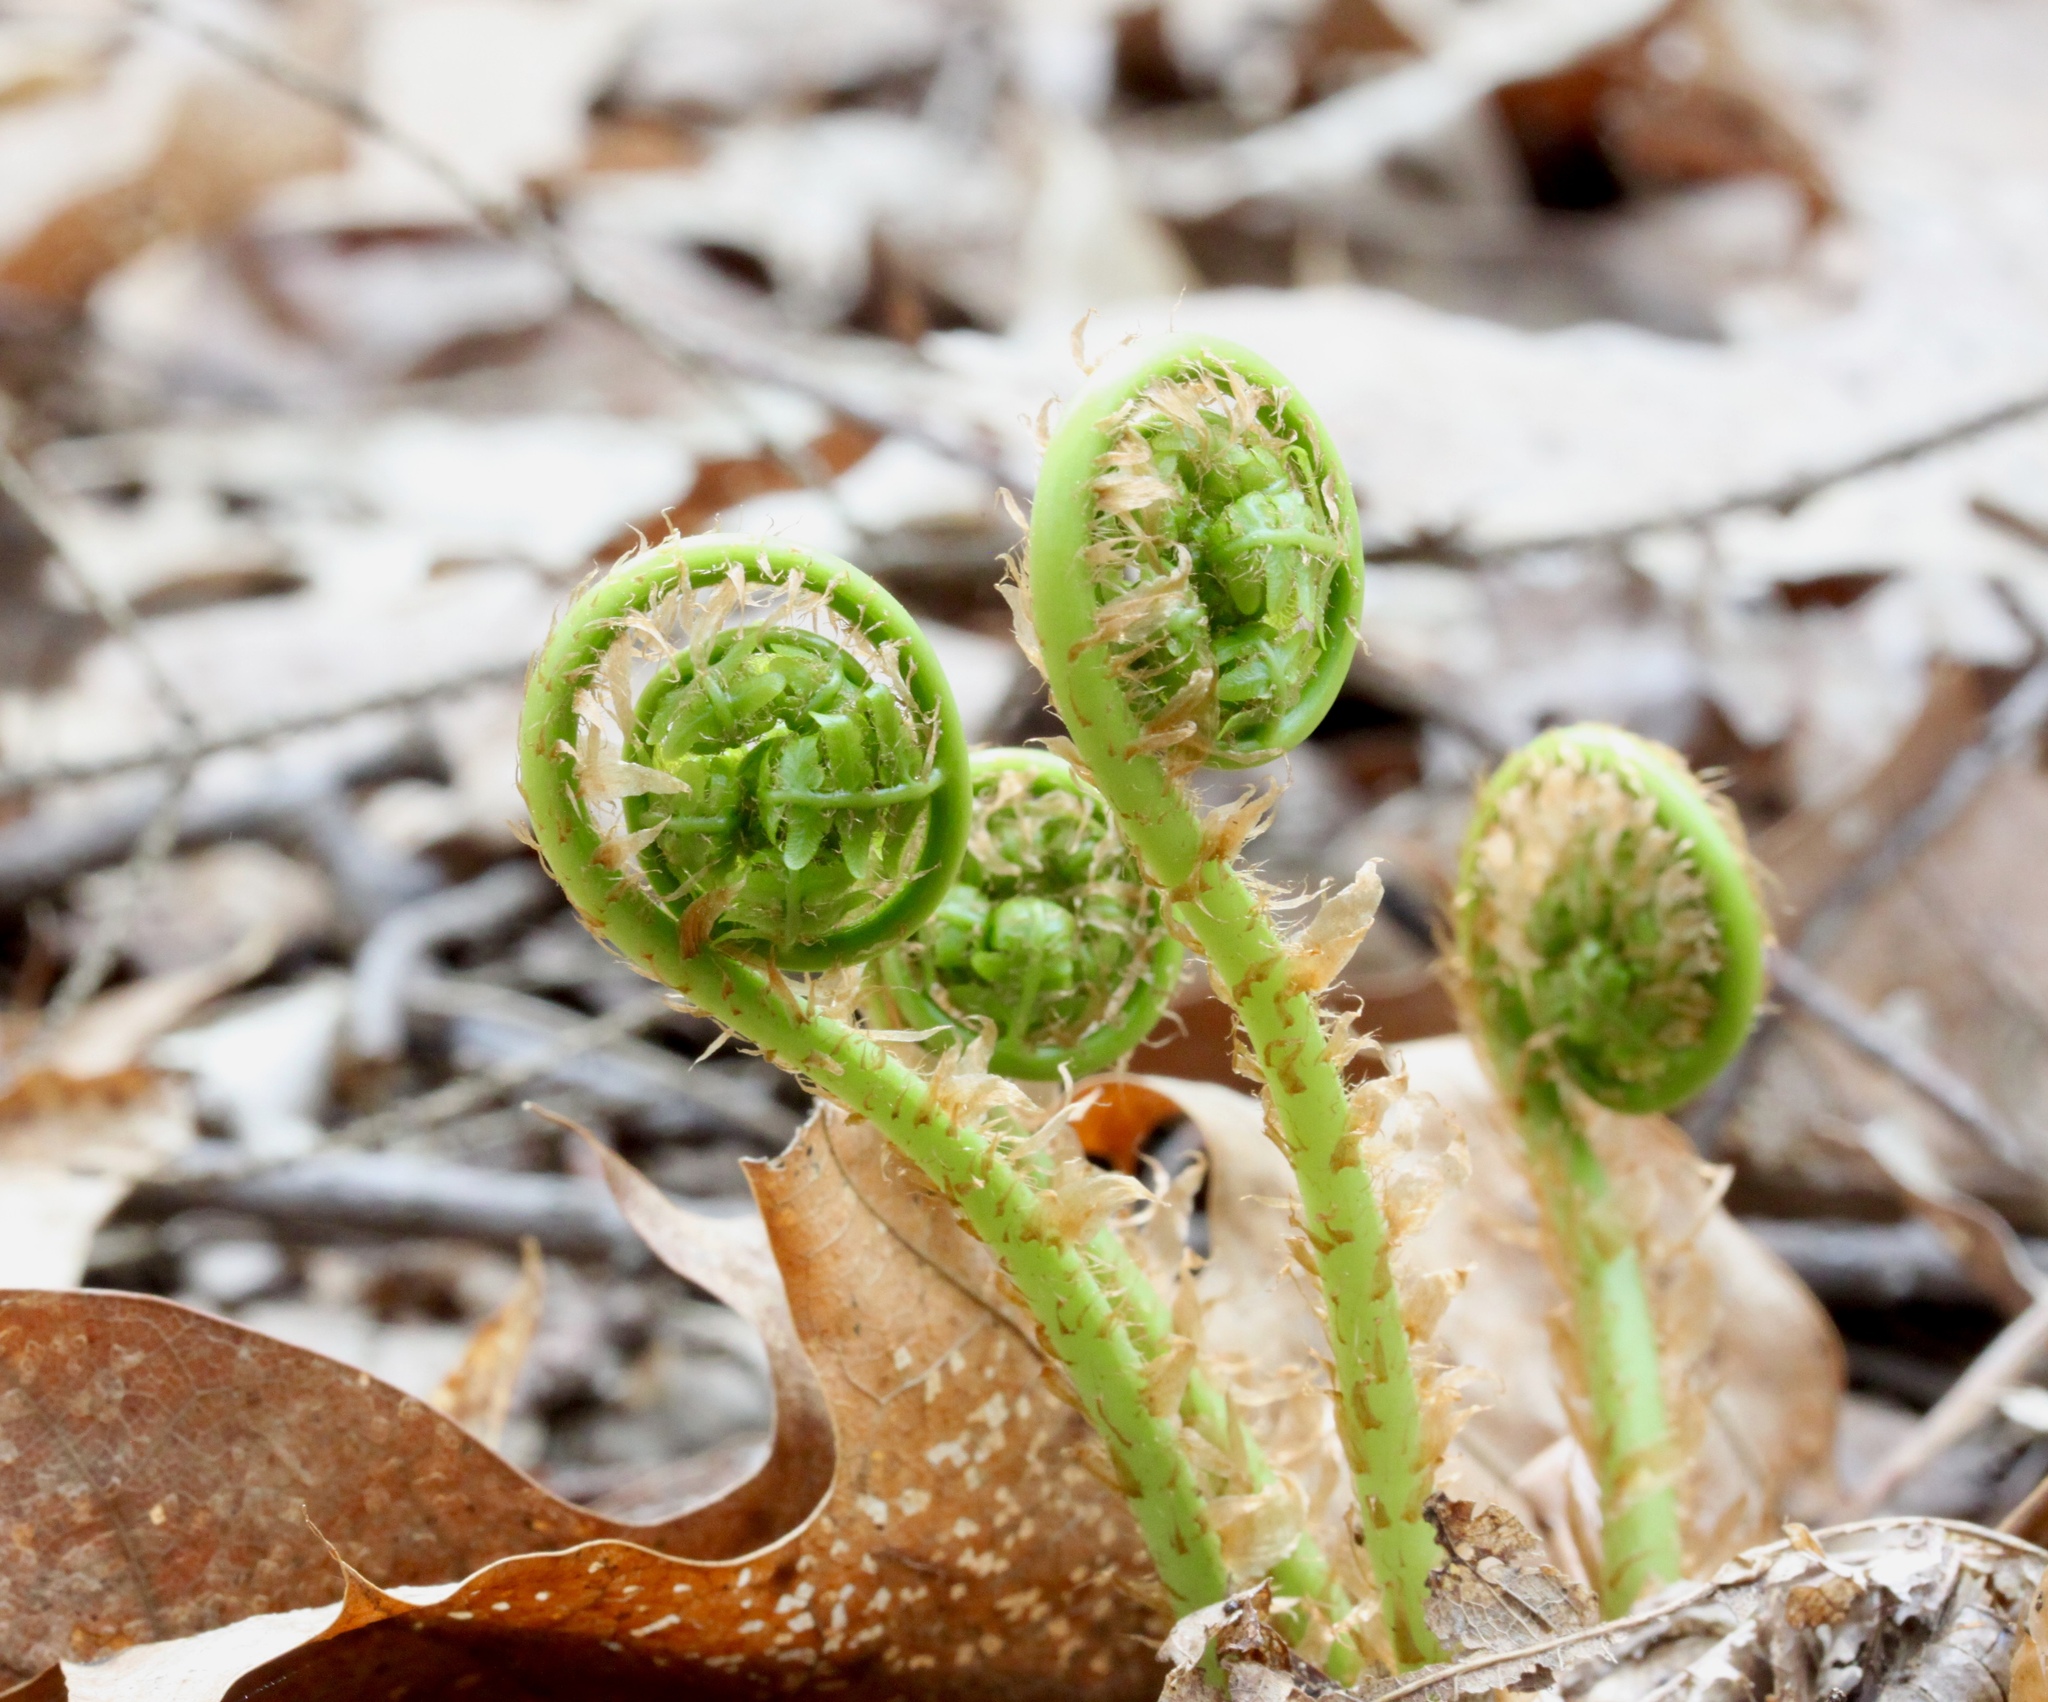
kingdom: Plantae
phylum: Tracheophyta
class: Polypodiopsida
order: Polypodiales
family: Dryopteridaceae
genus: Dryopteris
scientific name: Dryopteris marginalis
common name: Marginal wood fern
